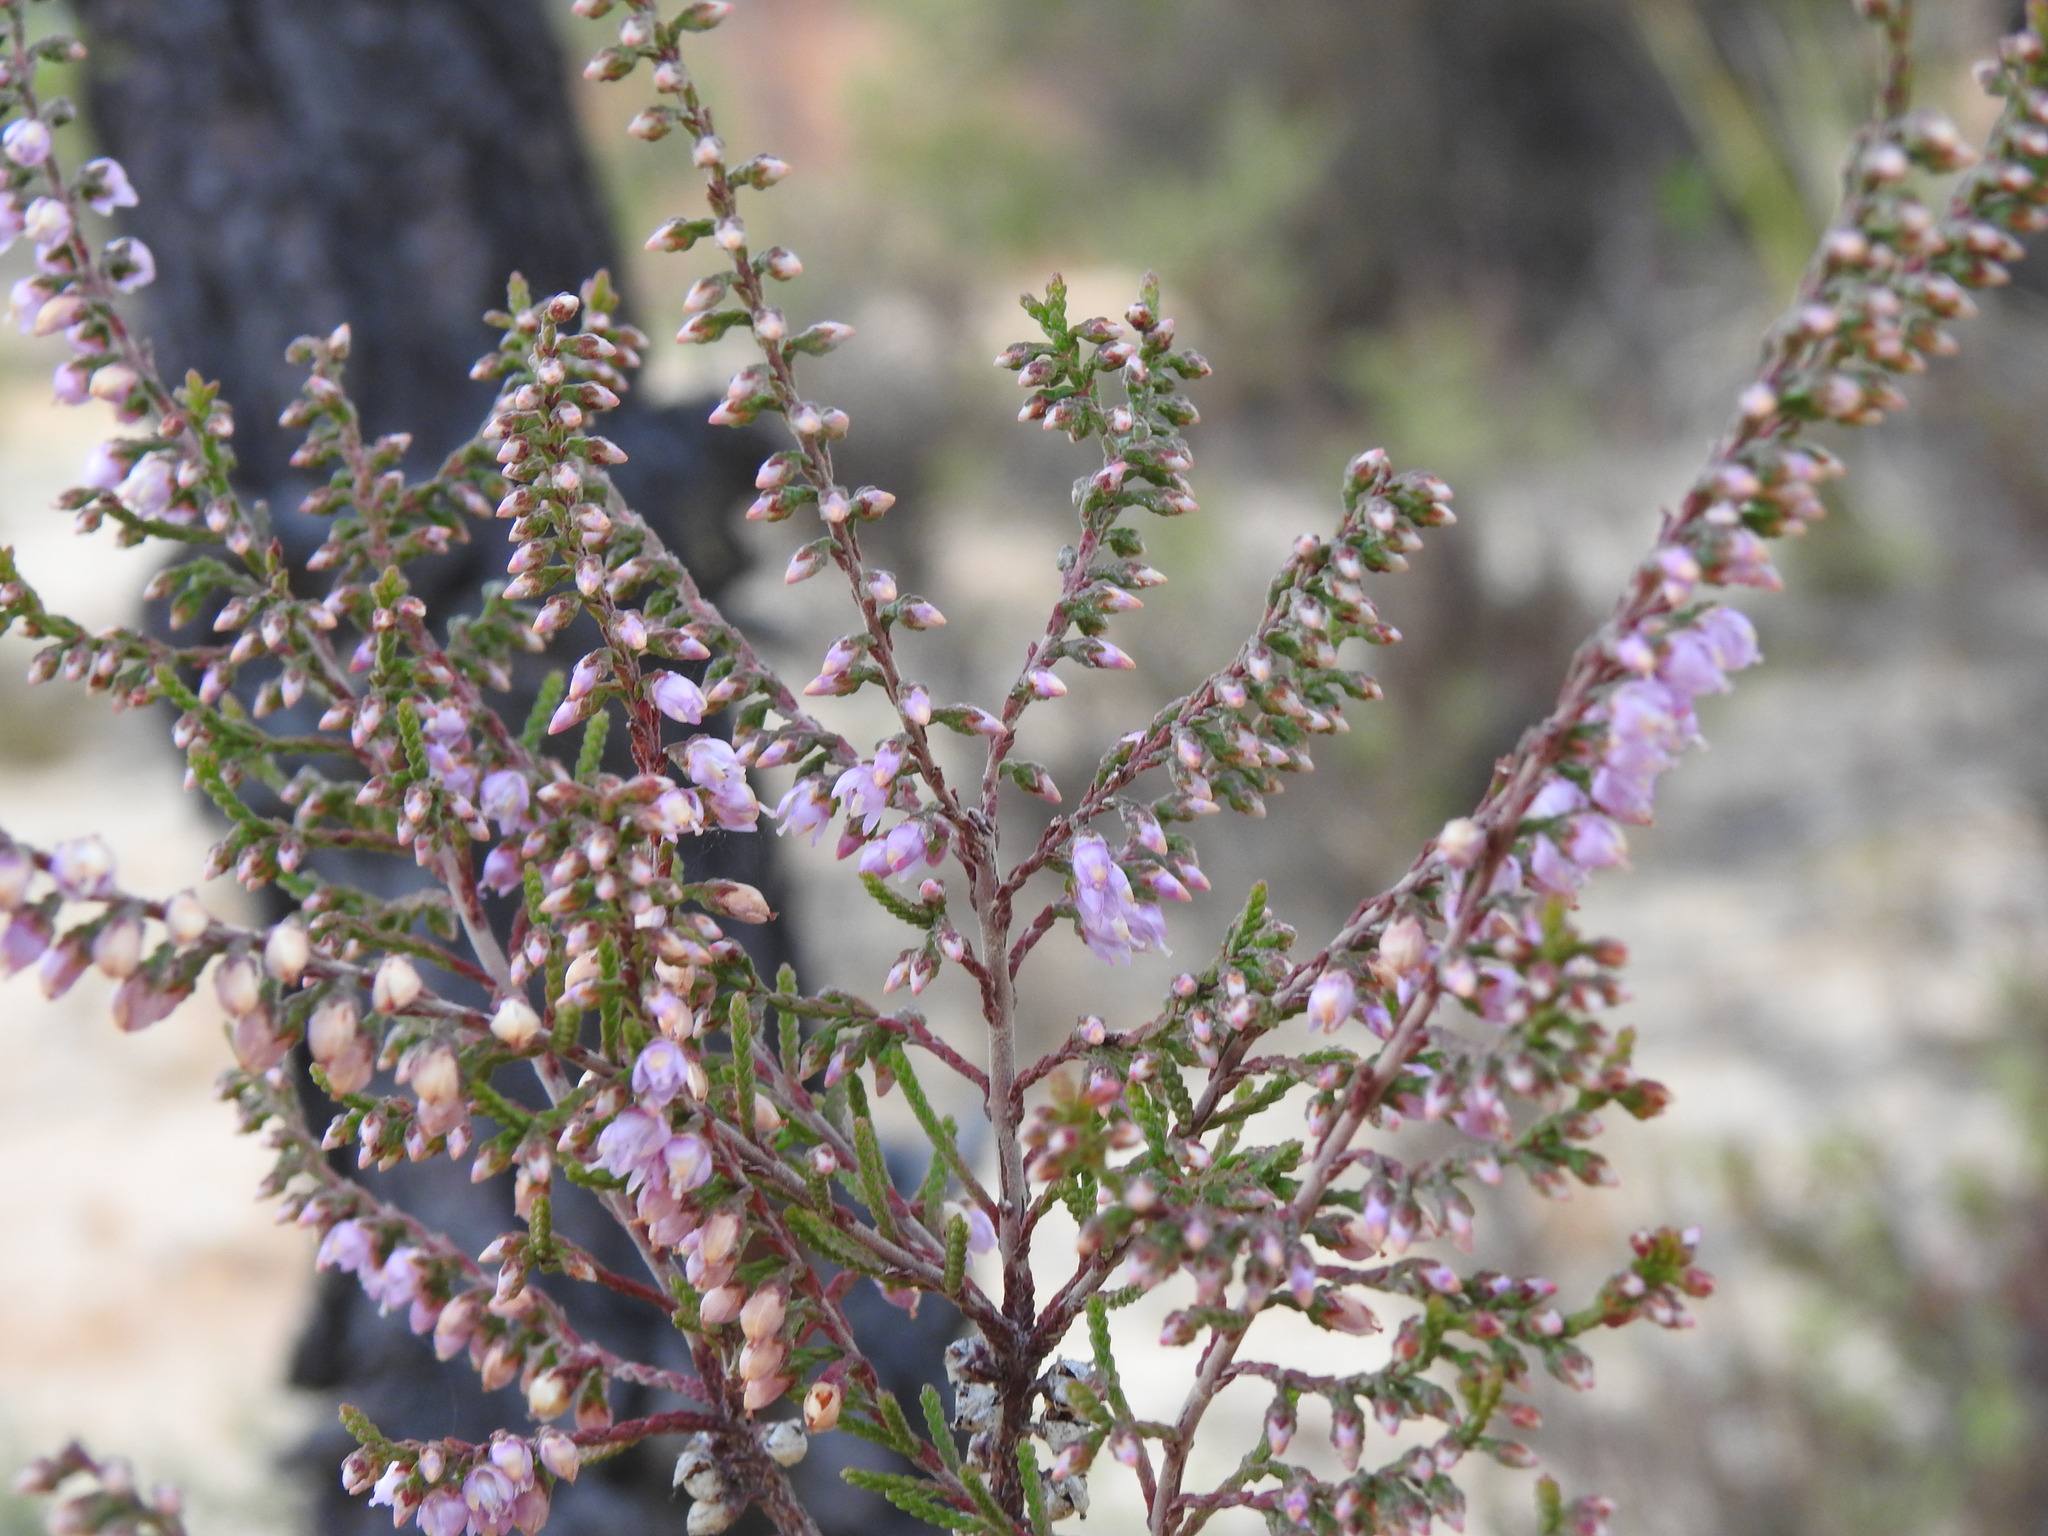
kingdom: Plantae
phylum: Tracheophyta
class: Magnoliopsida
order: Ericales
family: Ericaceae
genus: Calluna
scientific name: Calluna vulgaris
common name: Heather
